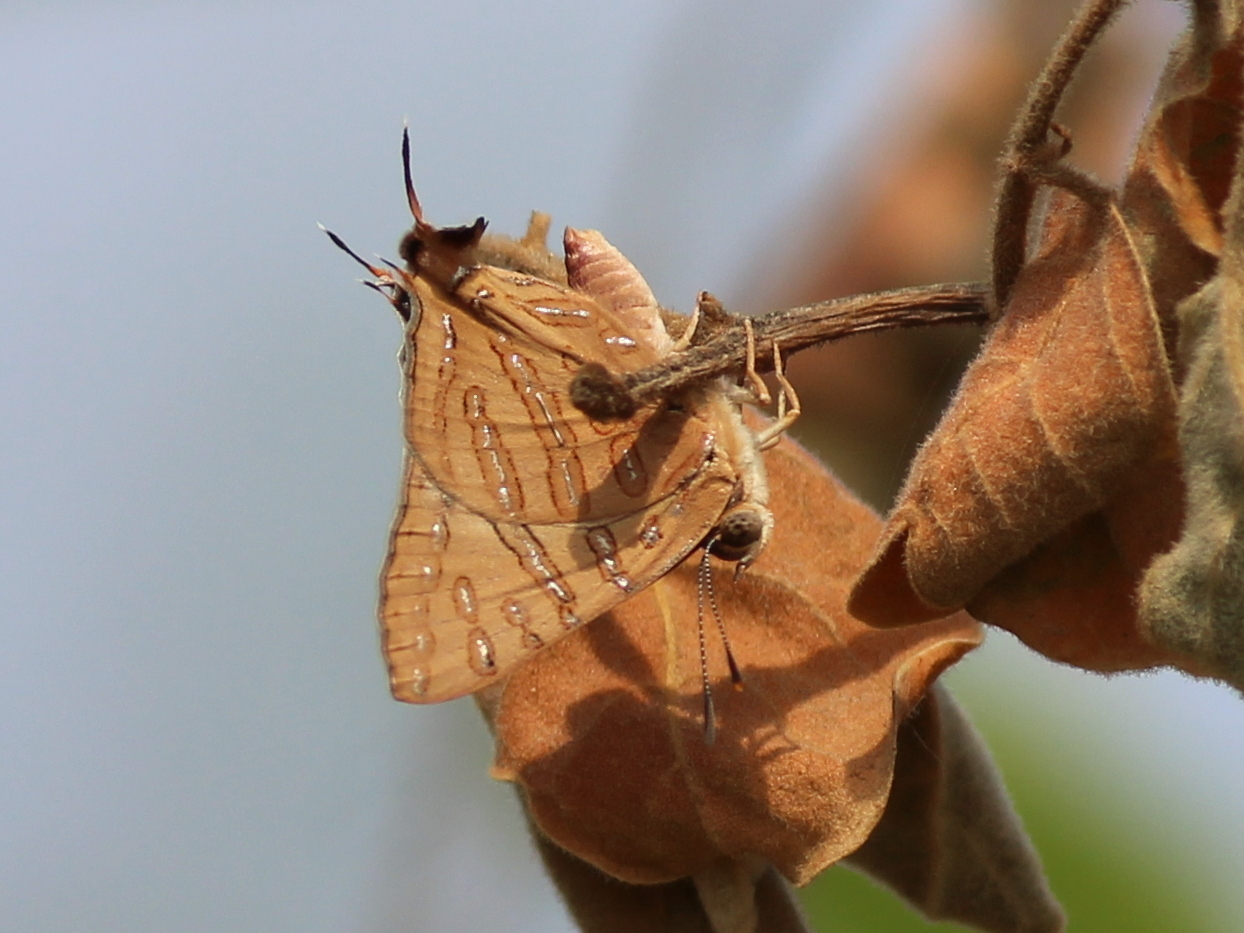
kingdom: Animalia
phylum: Arthropoda
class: Insecta
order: Lepidoptera
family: Lycaenidae
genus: Cigaritis
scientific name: Cigaritis
